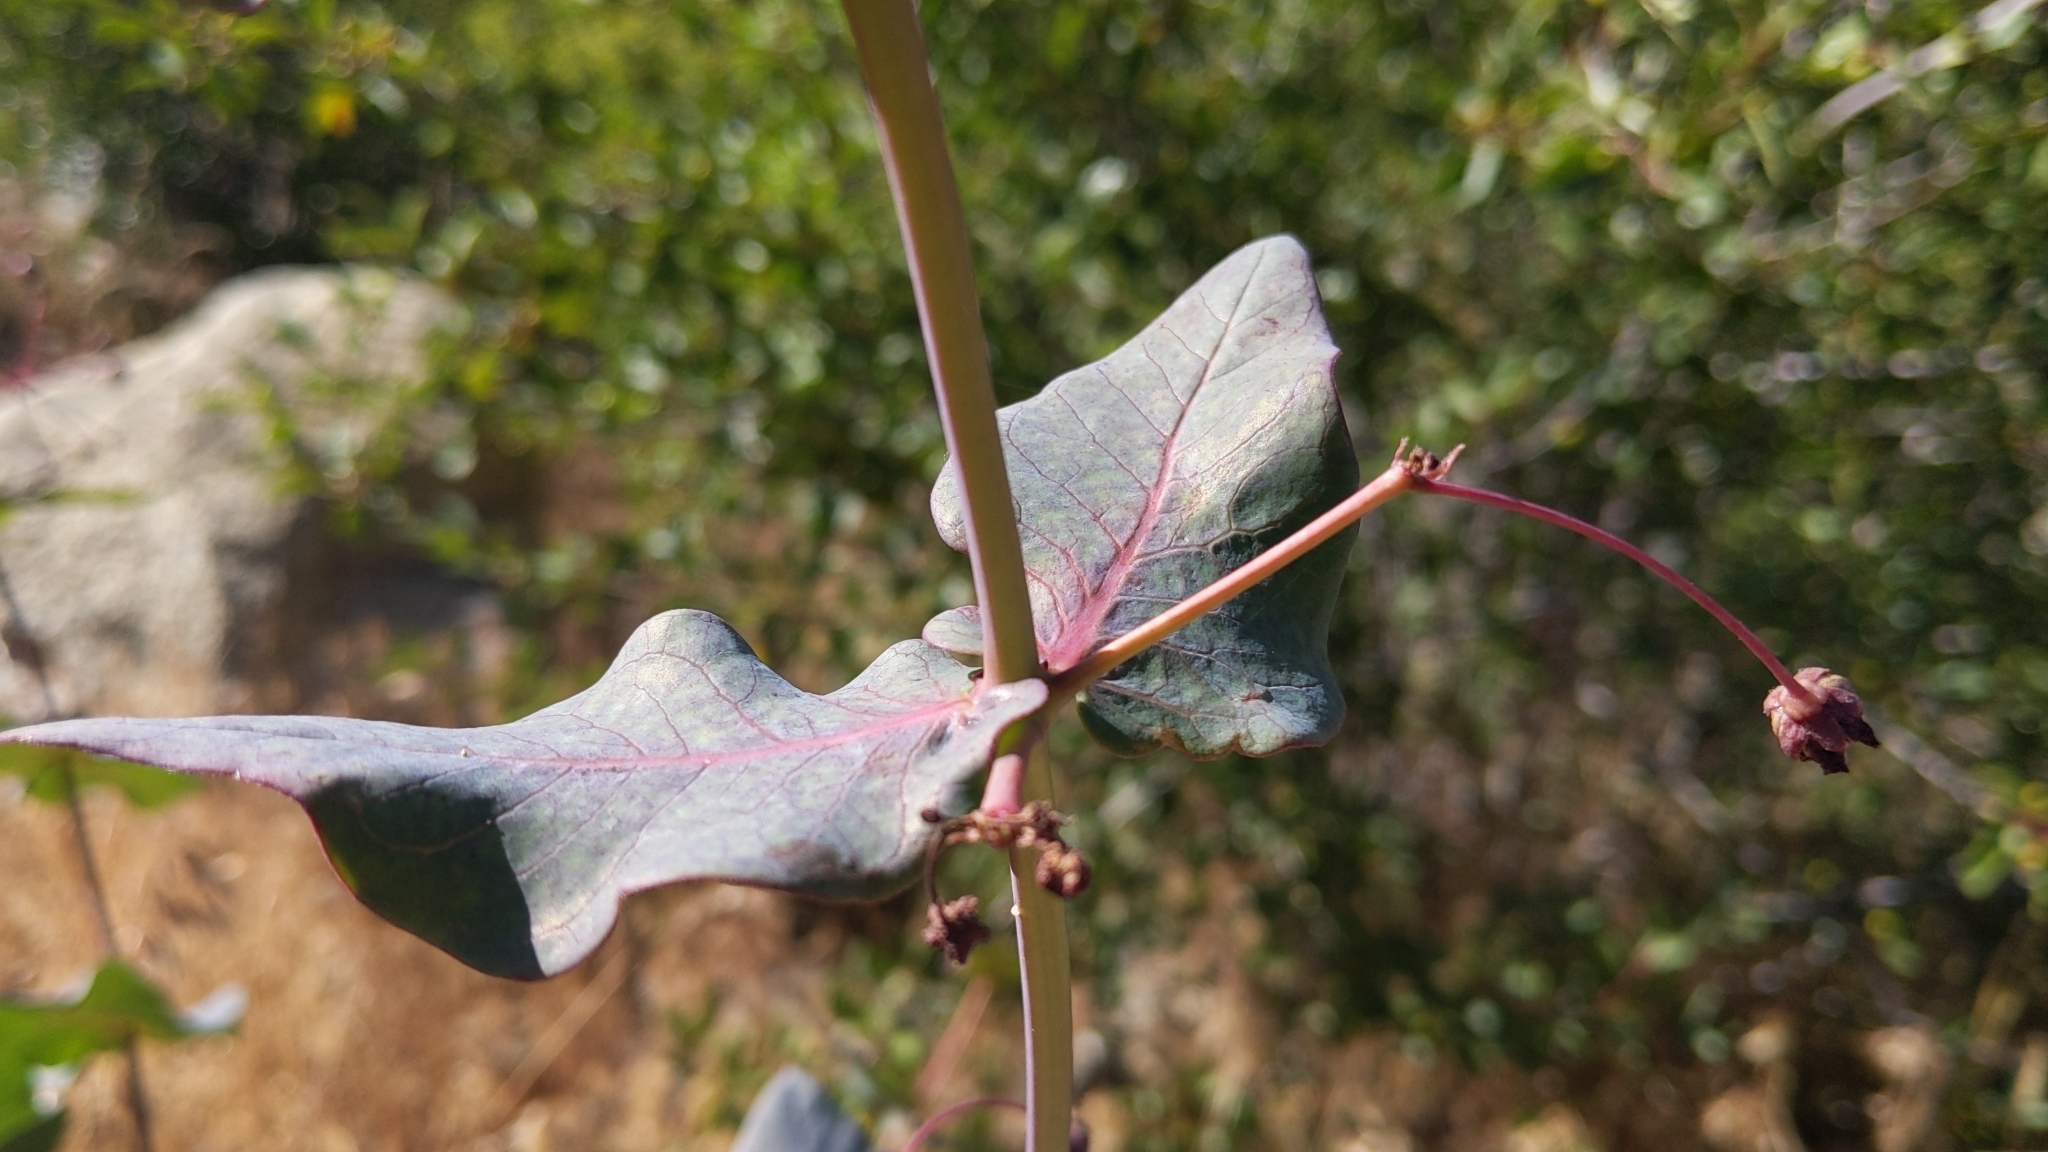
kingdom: Plantae
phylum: Tracheophyta
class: Magnoliopsida
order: Gentianales
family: Apocynaceae
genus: Asclepias
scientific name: Asclepias cordifolia
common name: Purple milkweed
